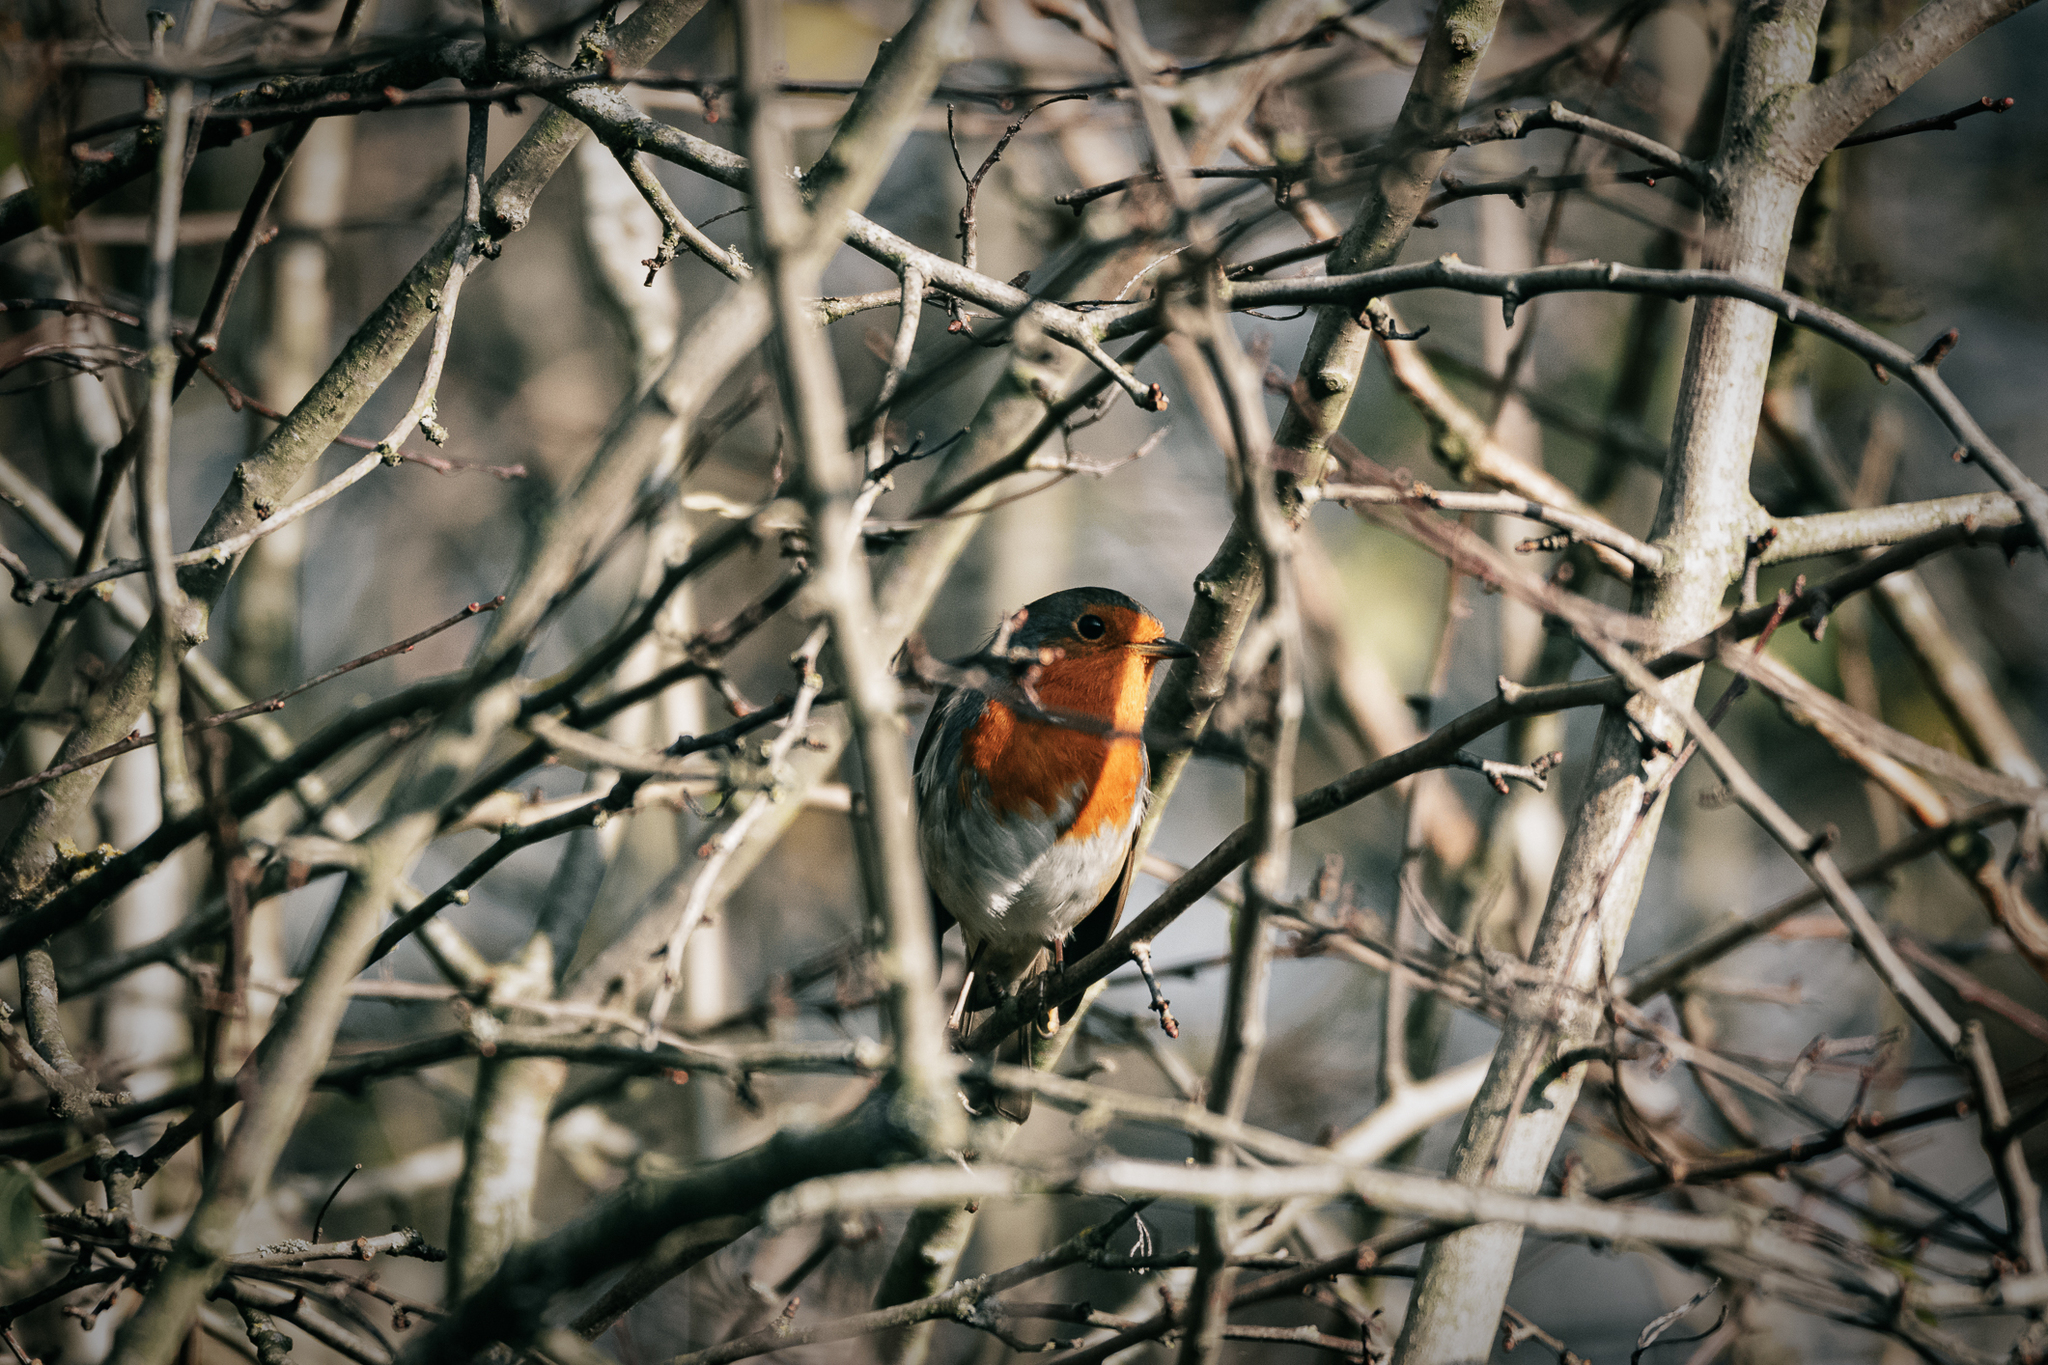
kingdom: Animalia
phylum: Chordata
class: Aves
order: Passeriformes
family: Muscicapidae
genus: Erithacus
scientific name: Erithacus rubecula
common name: European robin
